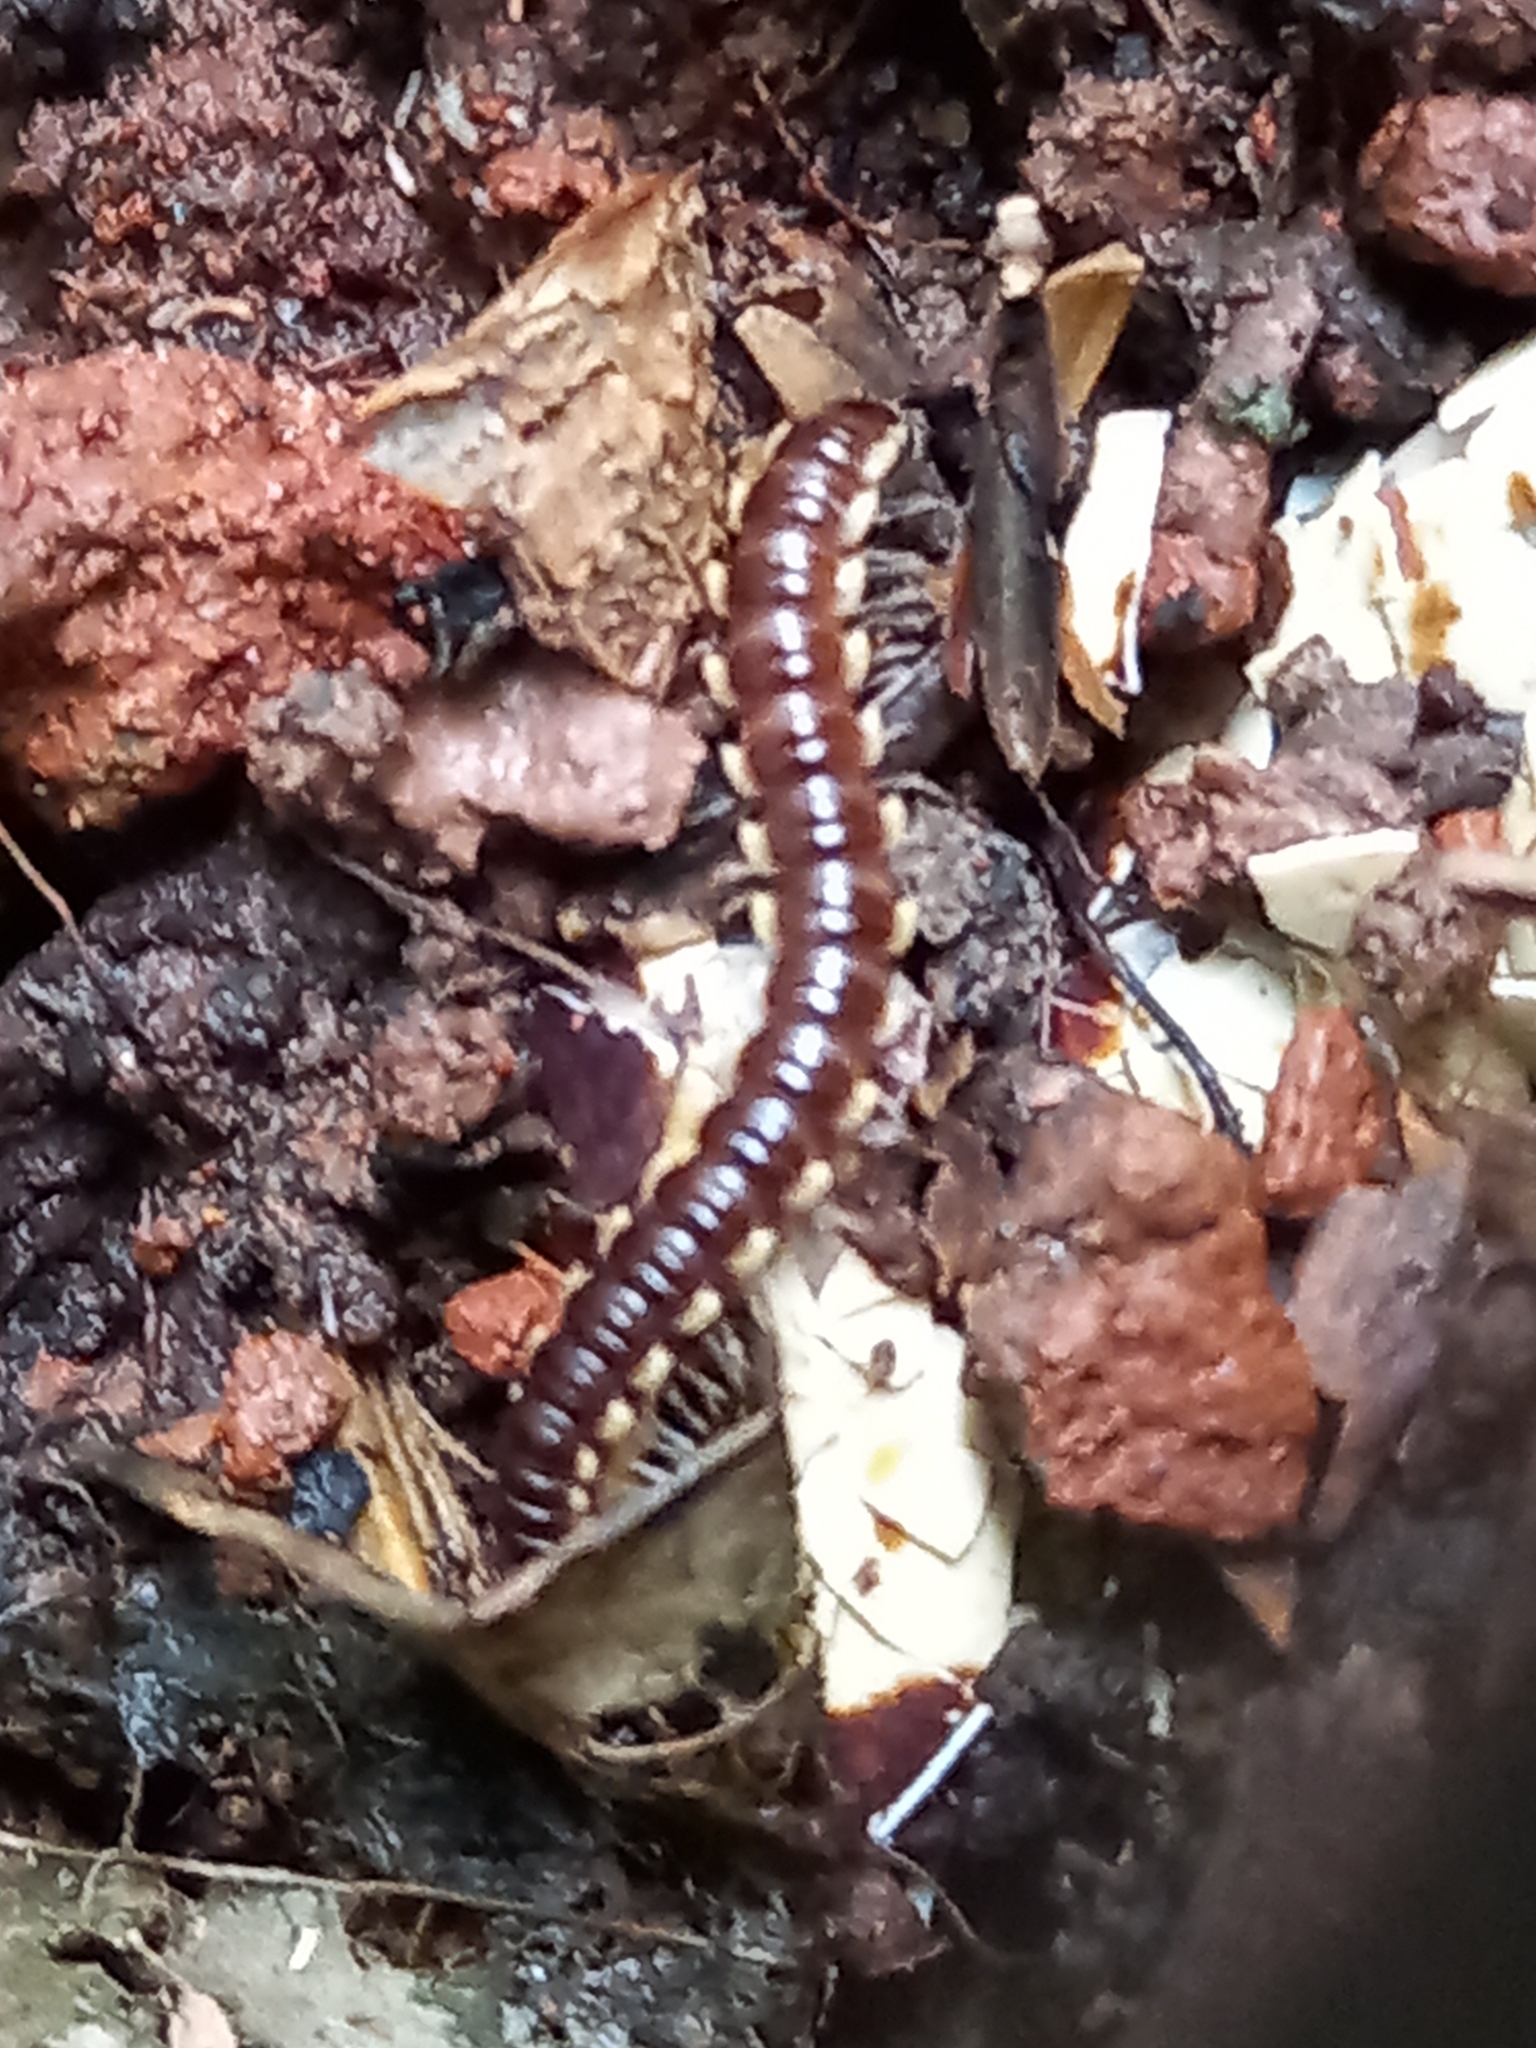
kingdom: Animalia
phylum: Arthropoda
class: Diplopoda
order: Polydesmida
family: Paradoxosomatidae
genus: Orthomorpha
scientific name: Orthomorpha coarctata
